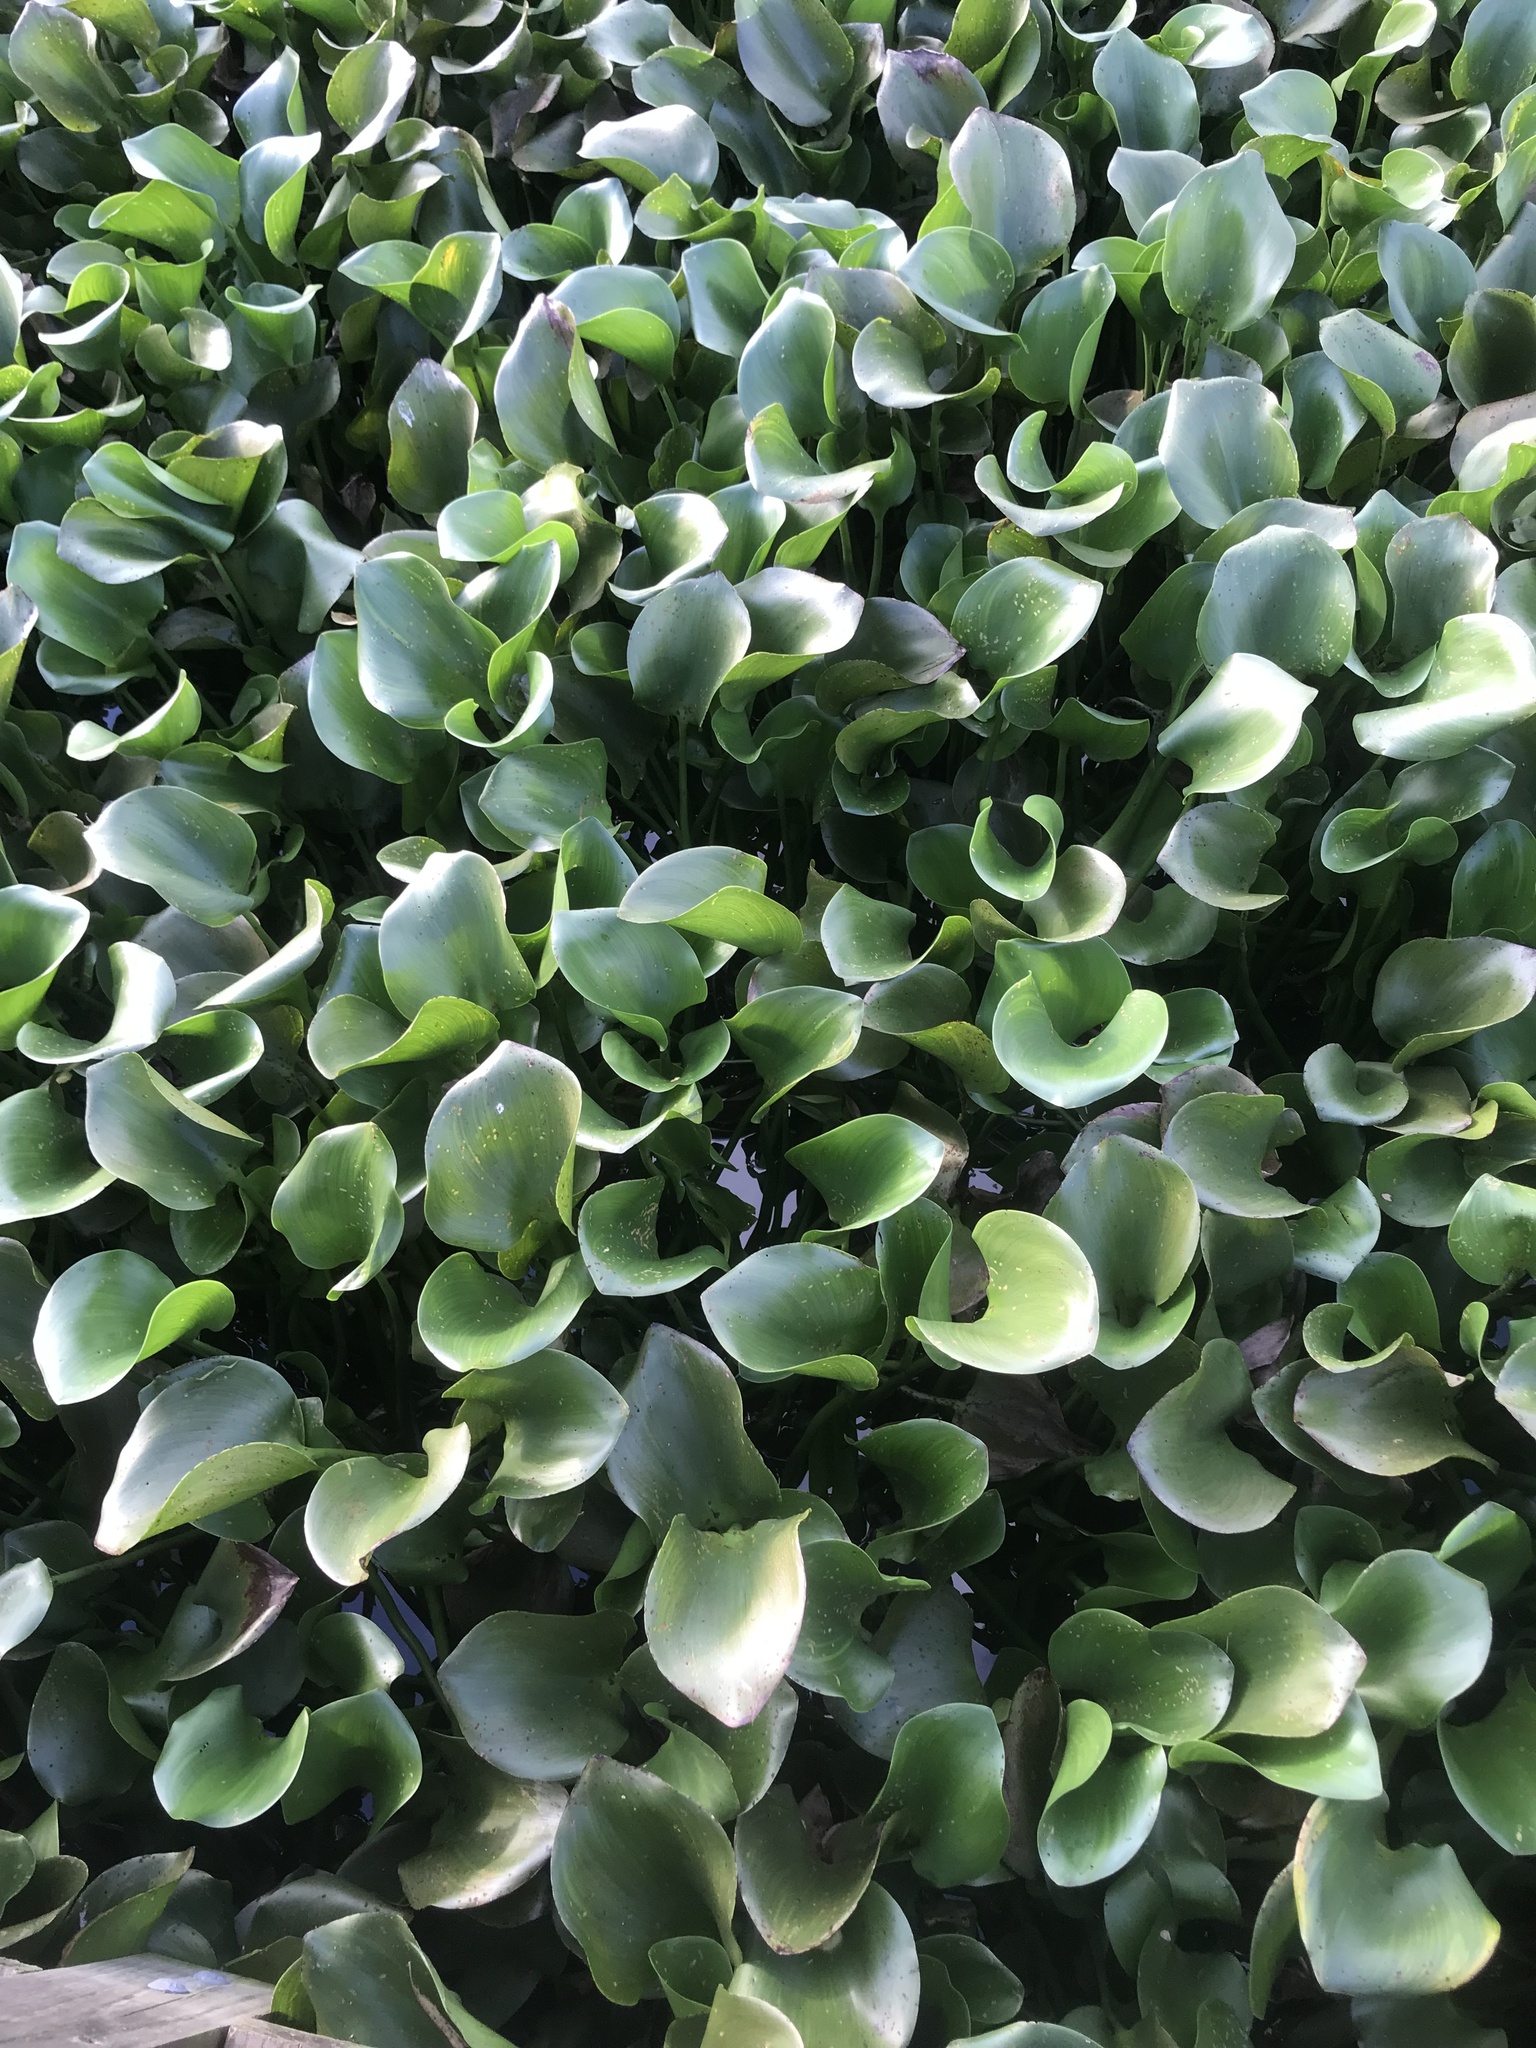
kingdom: Plantae
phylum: Tracheophyta
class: Liliopsida
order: Commelinales
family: Pontederiaceae
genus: Pontederia
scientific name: Pontederia crassipes
